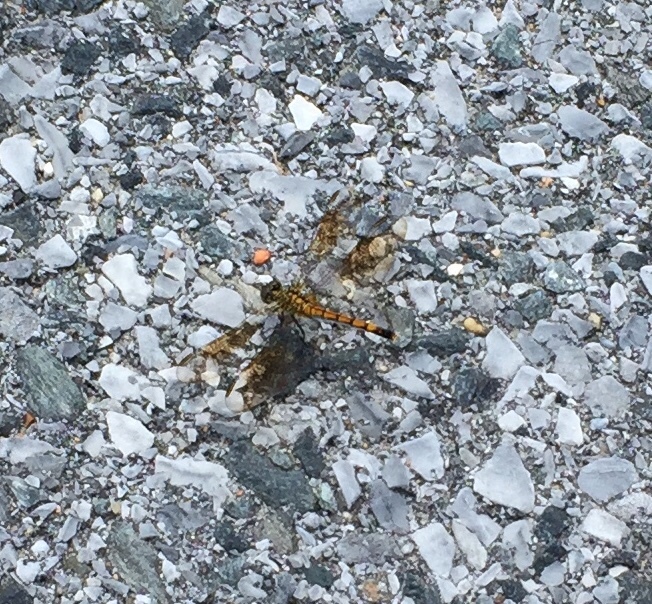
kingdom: Animalia
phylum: Arthropoda
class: Insecta
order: Odonata
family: Libellulidae
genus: Erythrodiplax
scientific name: Erythrodiplax berenice
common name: Seaside dragonlet
